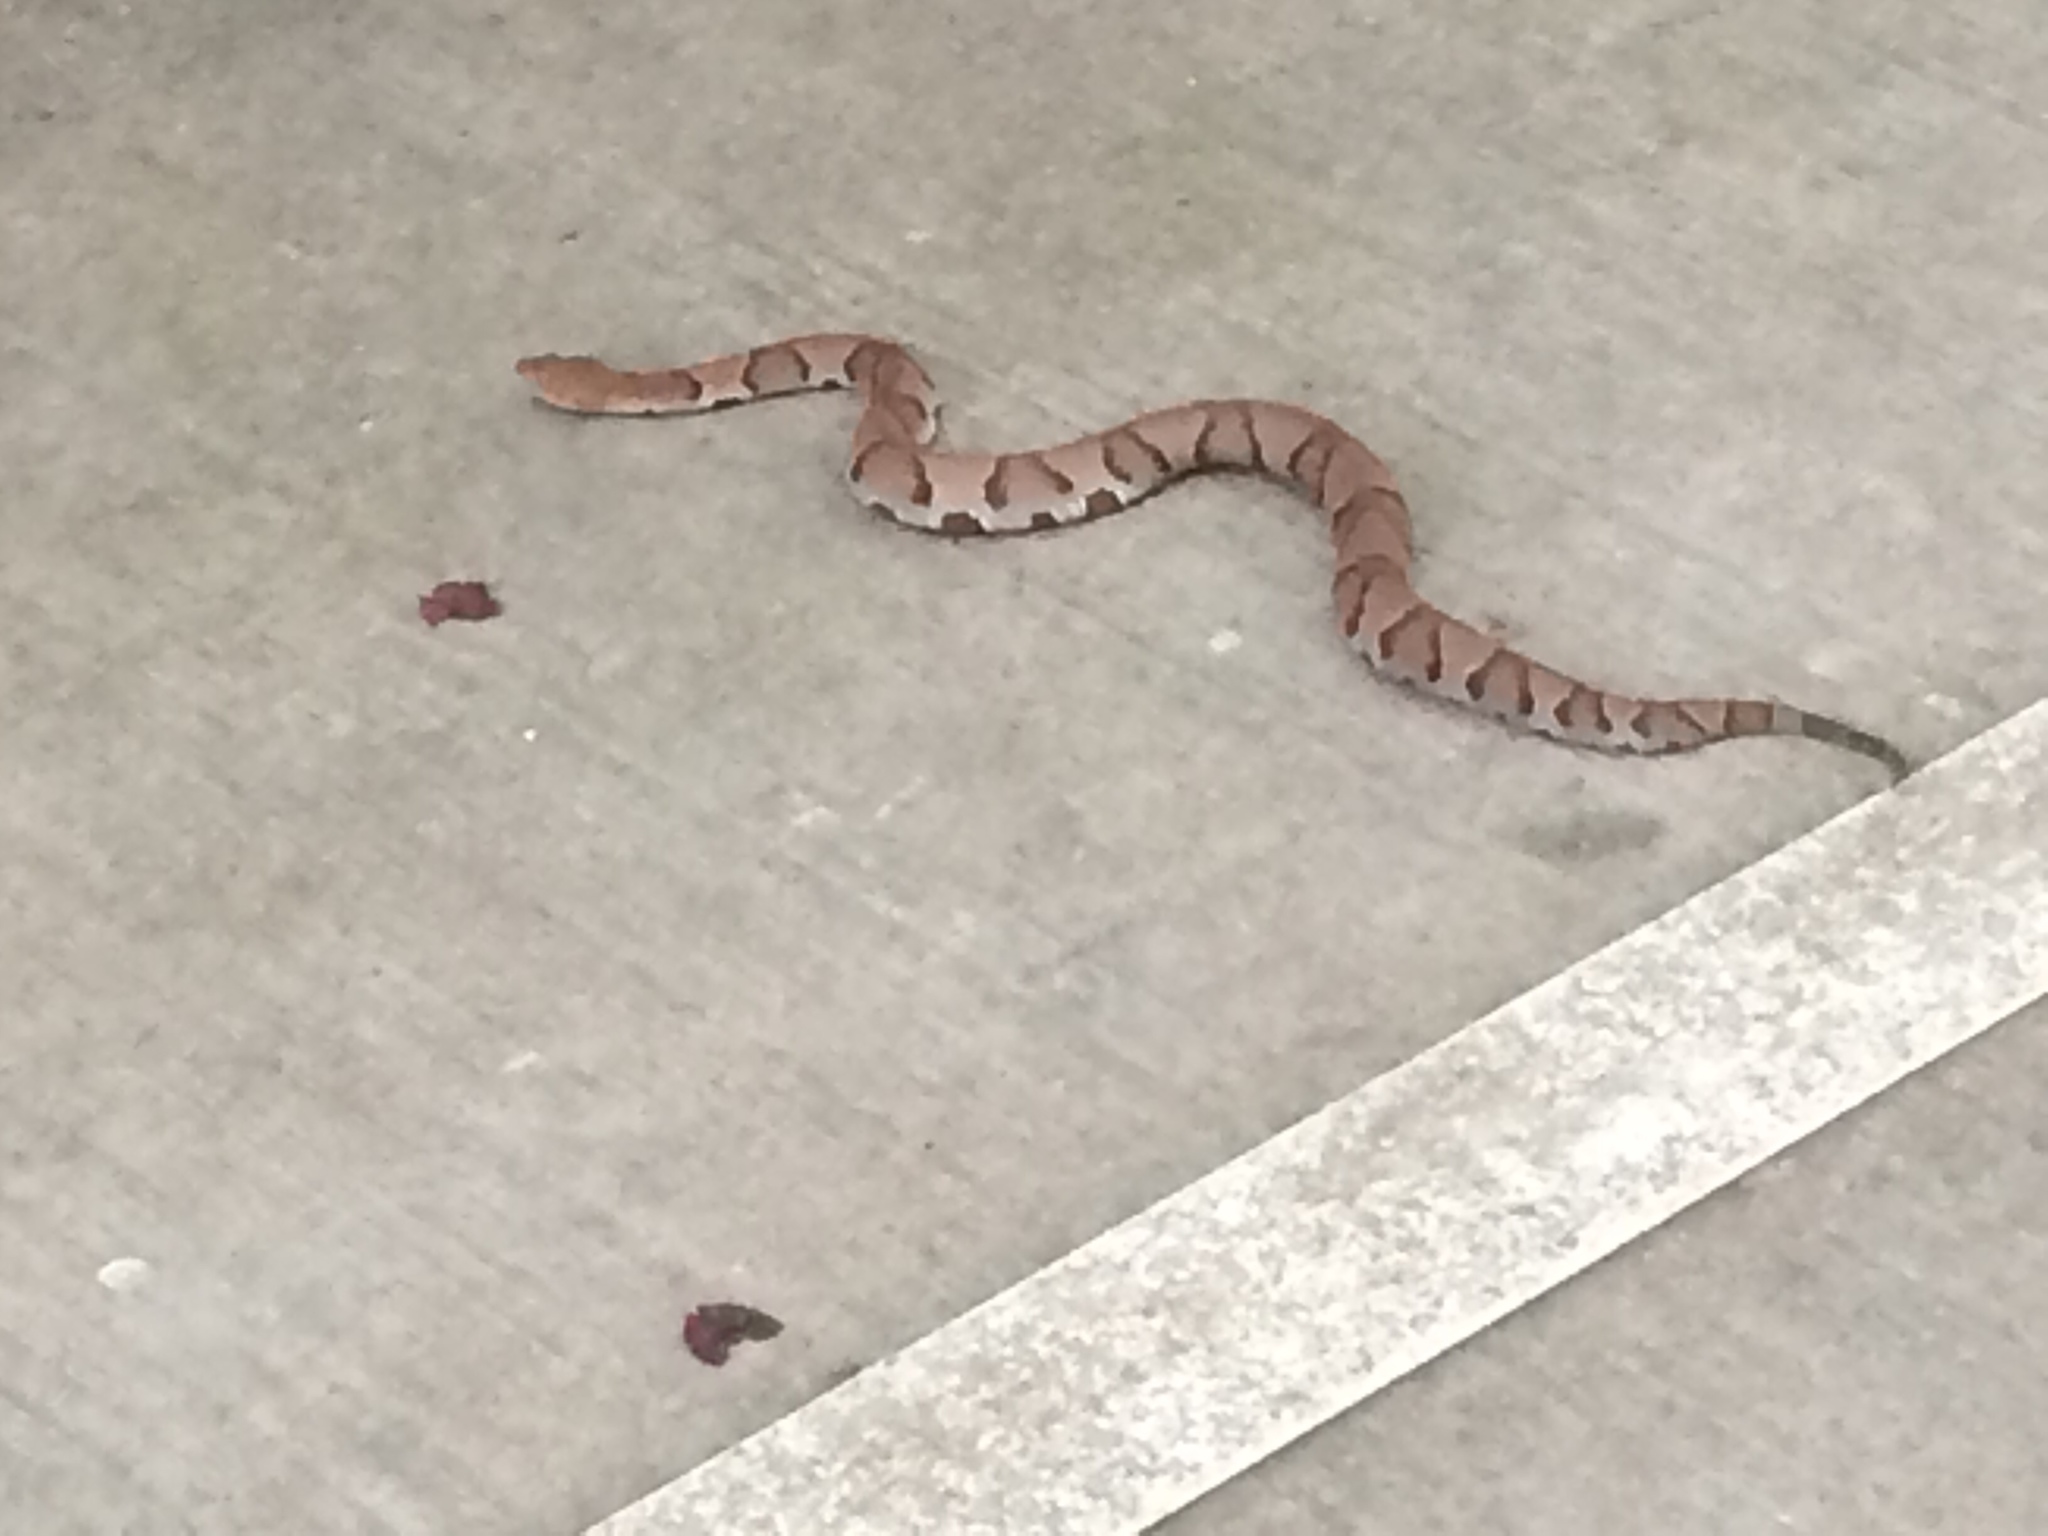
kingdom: Animalia
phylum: Chordata
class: Squamata
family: Viperidae
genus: Agkistrodon
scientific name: Agkistrodon contortrix
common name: Northern copperhead
